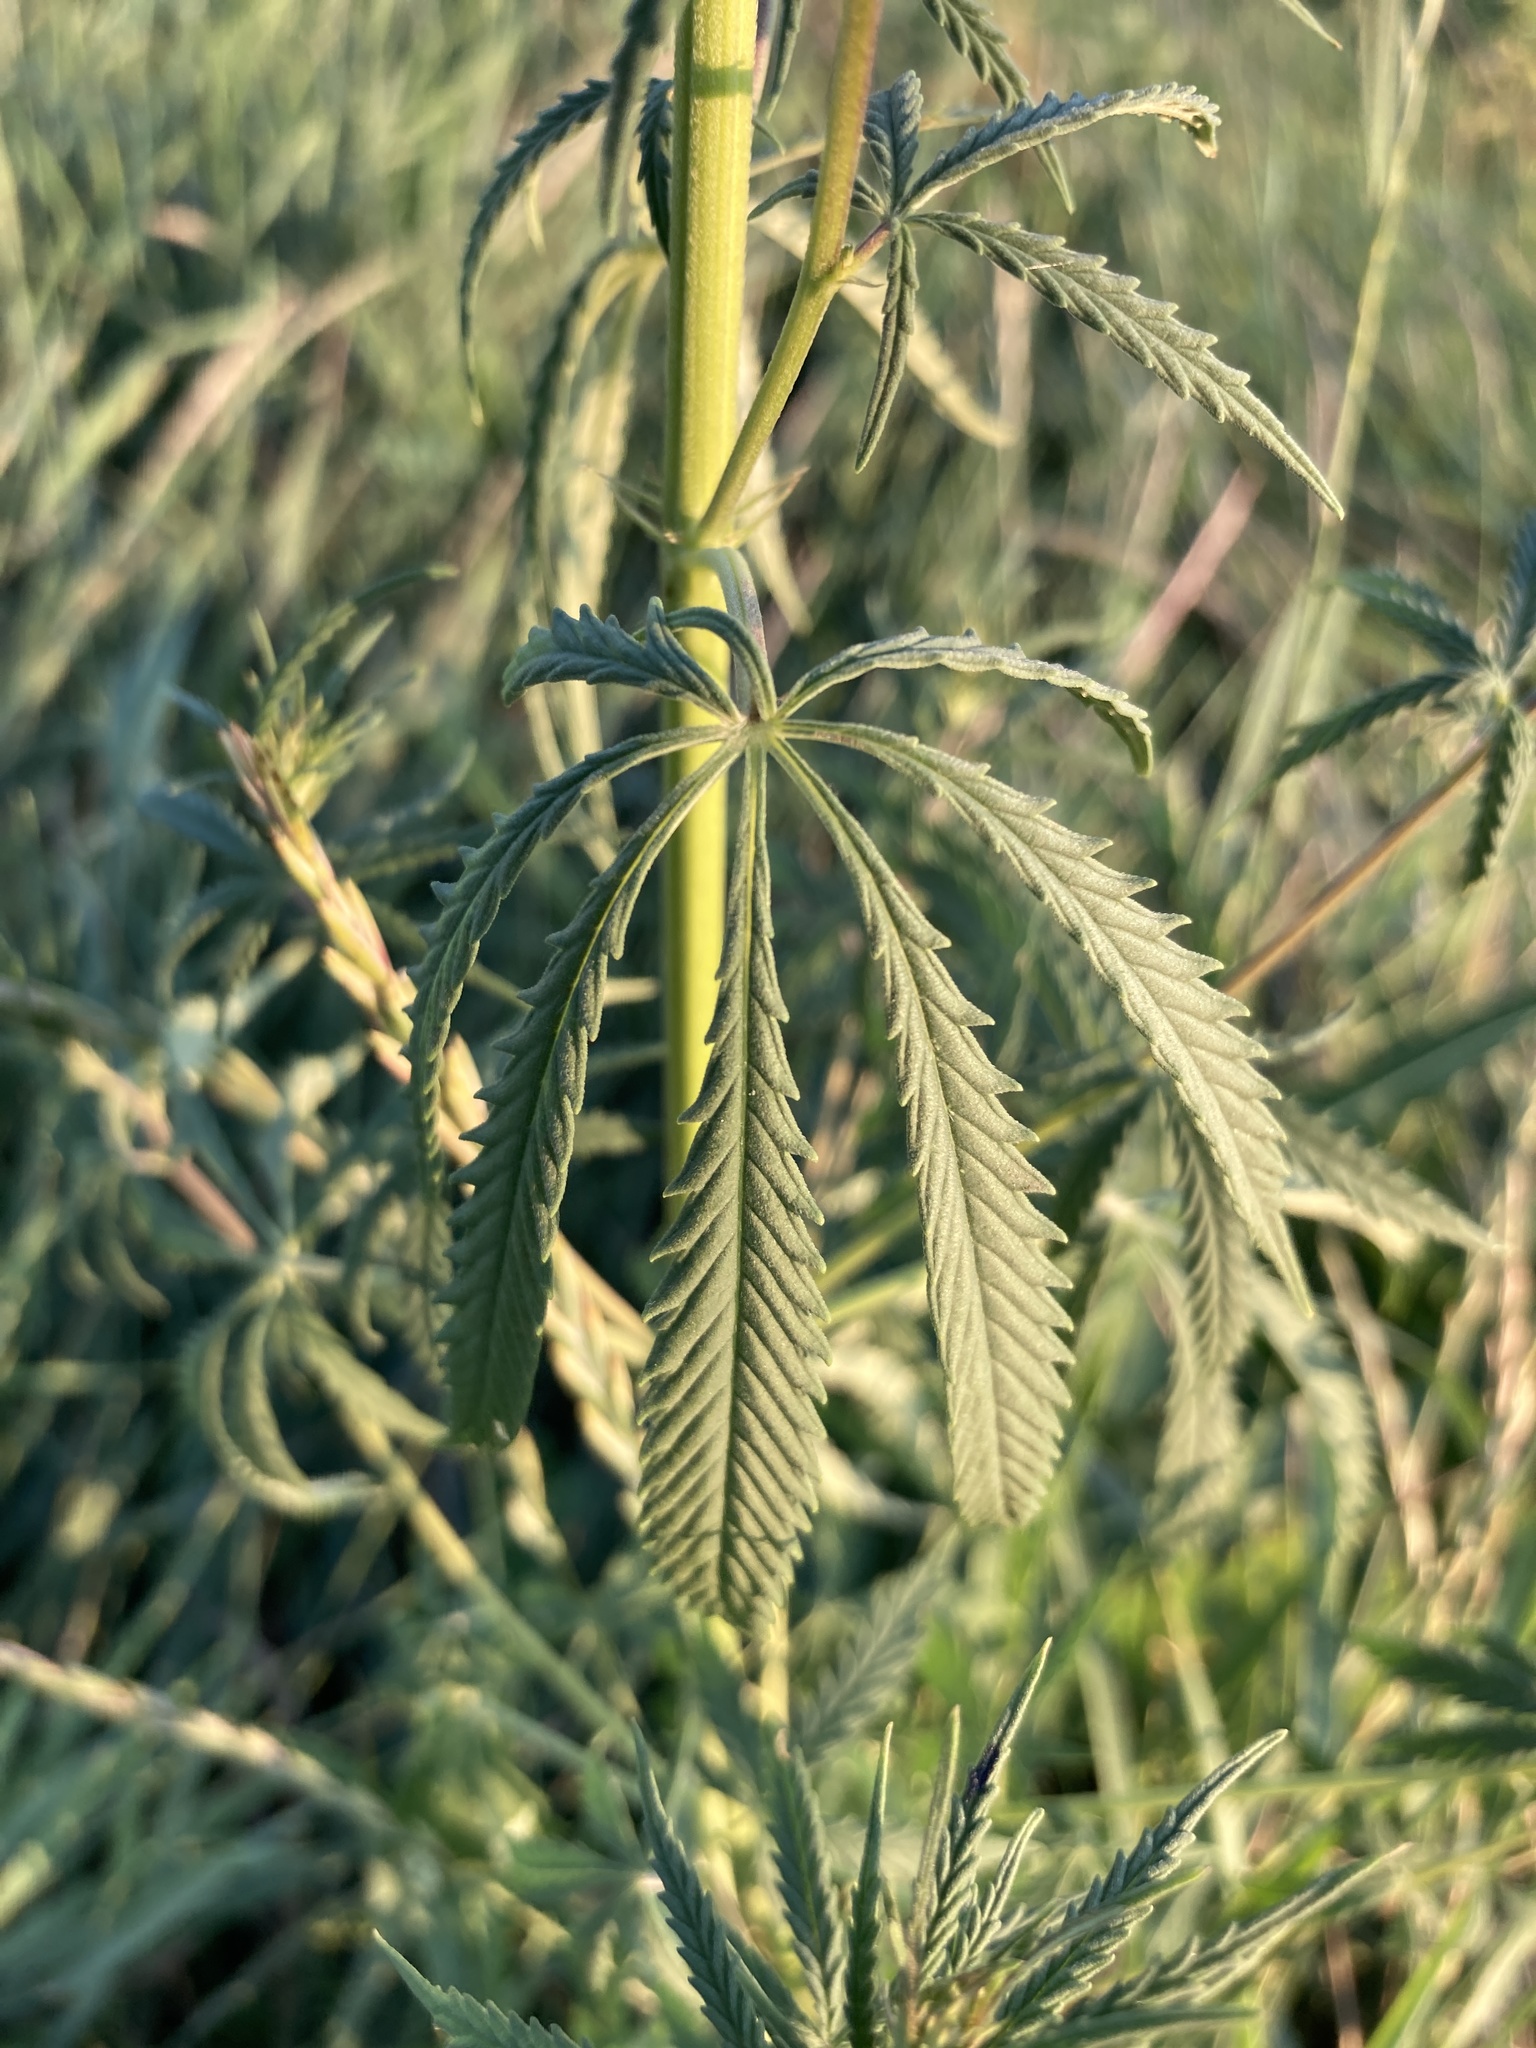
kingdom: Plantae
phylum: Tracheophyta
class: Magnoliopsida
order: Rosales
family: Cannabaceae
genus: Cannabis
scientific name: Cannabis sativa
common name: Hemp
